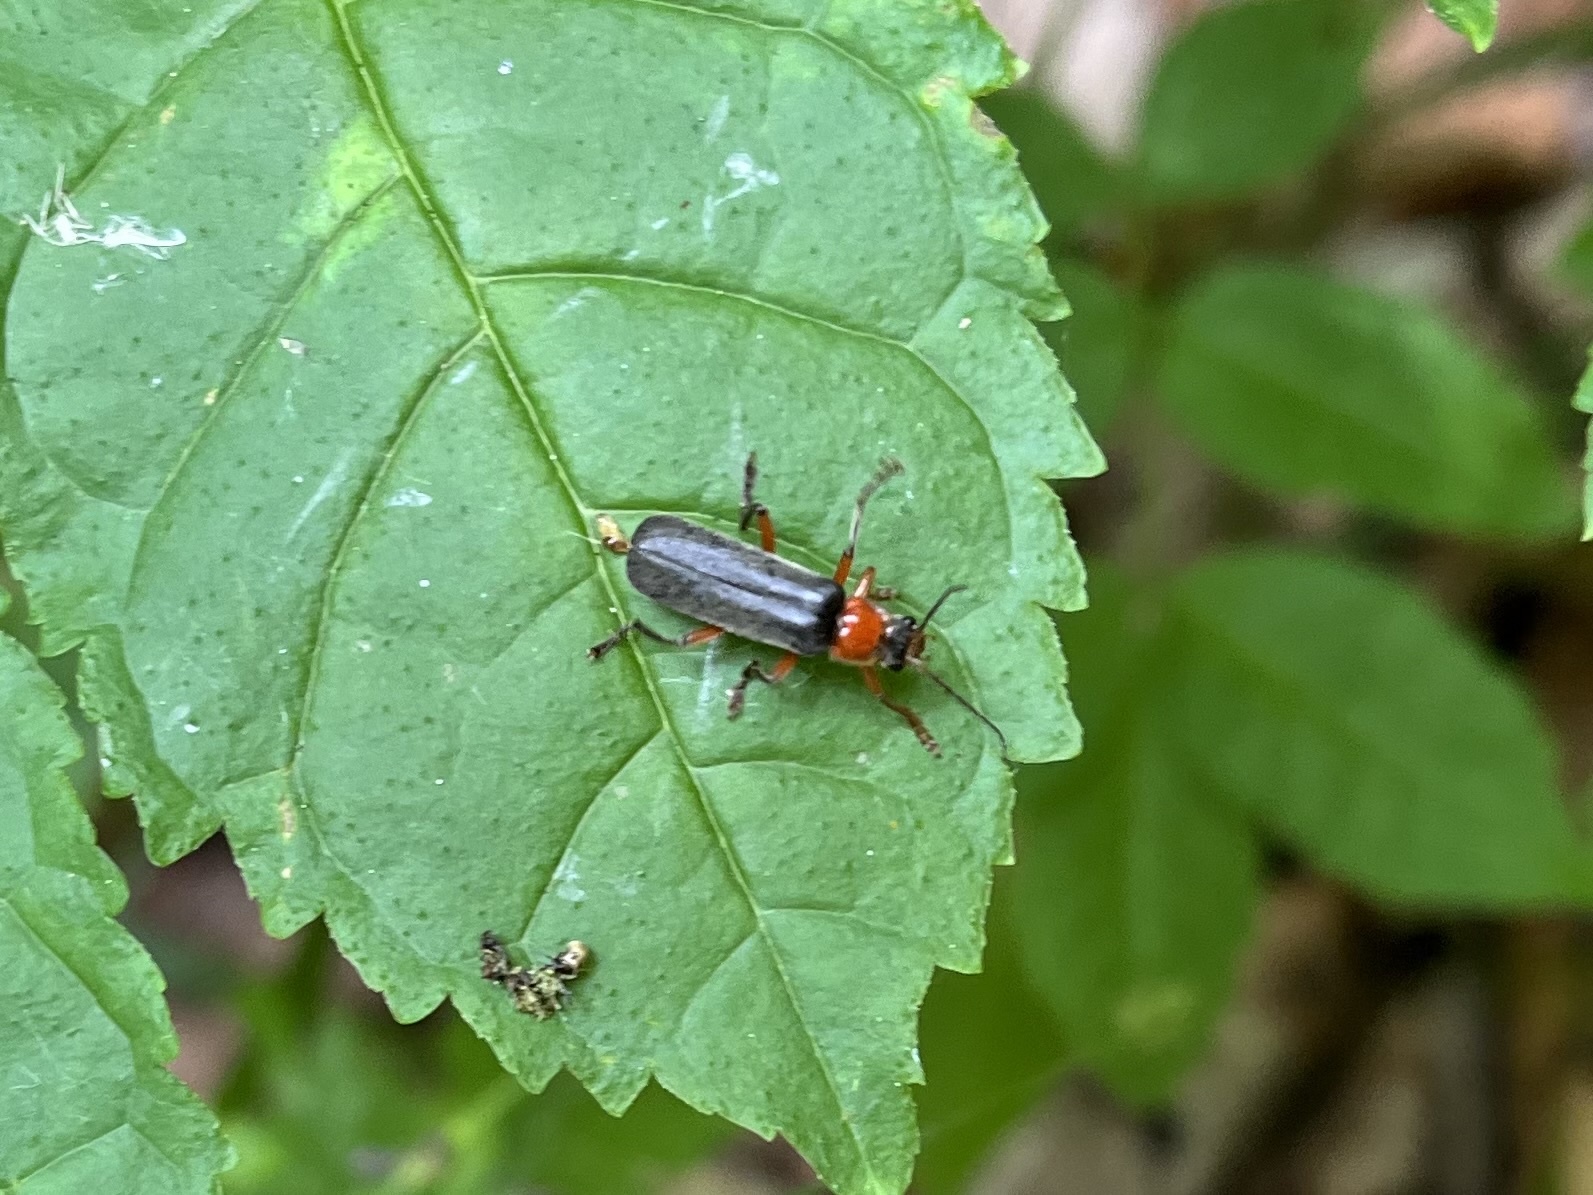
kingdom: Animalia
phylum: Arthropoda
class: Insecta
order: Coleoptera
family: Cantharidae
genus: Cantharis
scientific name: Cantharis pellucida
